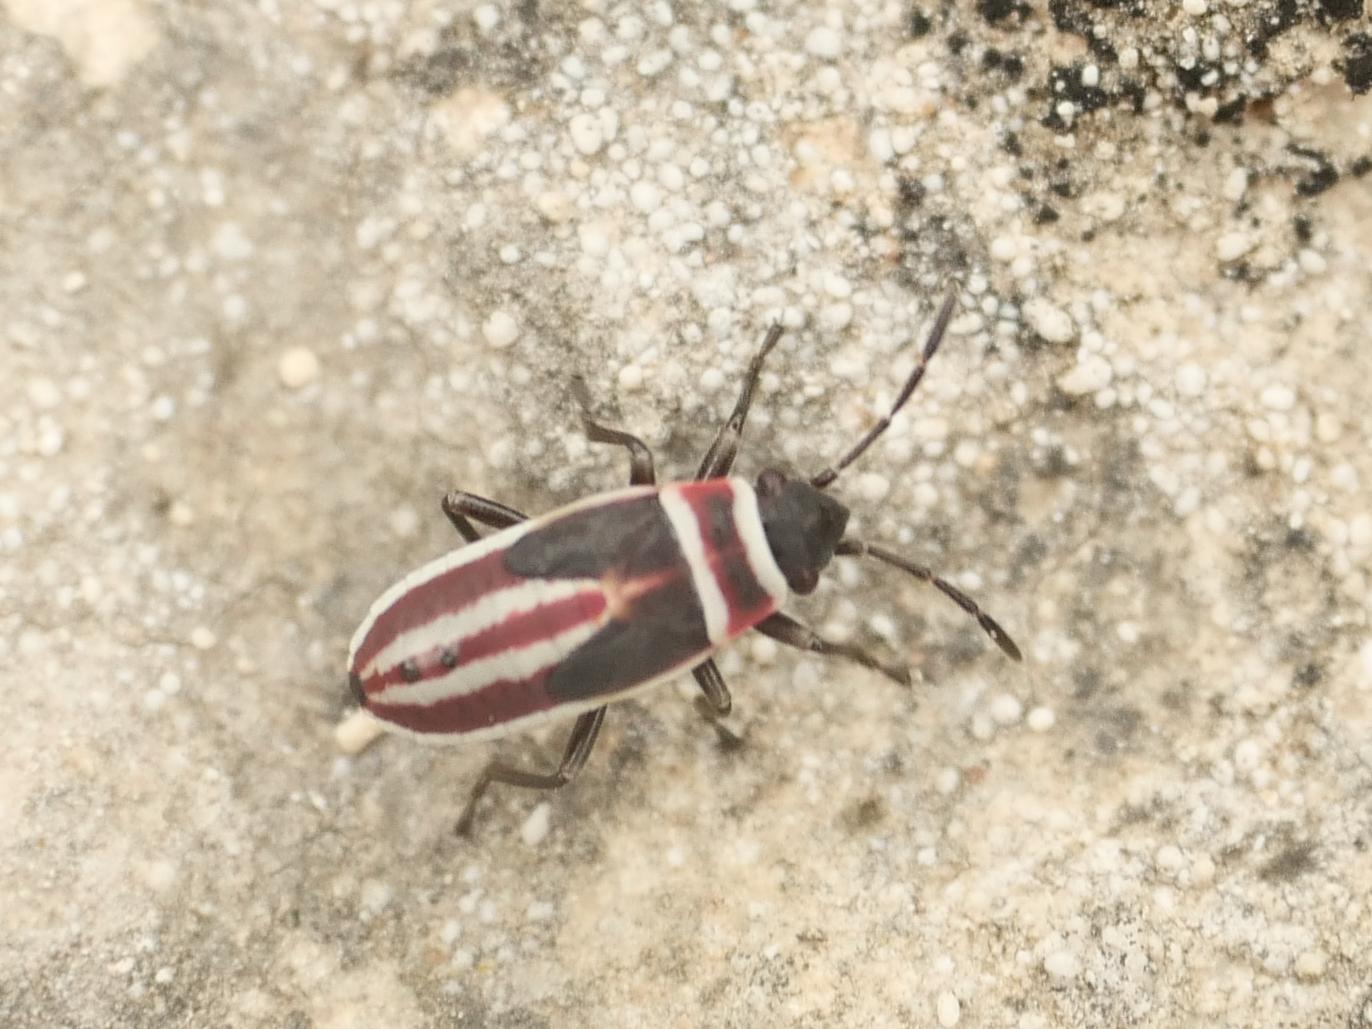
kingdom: Animalia
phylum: Arthropoda
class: Insecta
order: Hemiptera
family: Lygaeidae
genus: Ochrostomus
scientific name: Ochrostomus pulchellus
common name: Lygaeid bug
